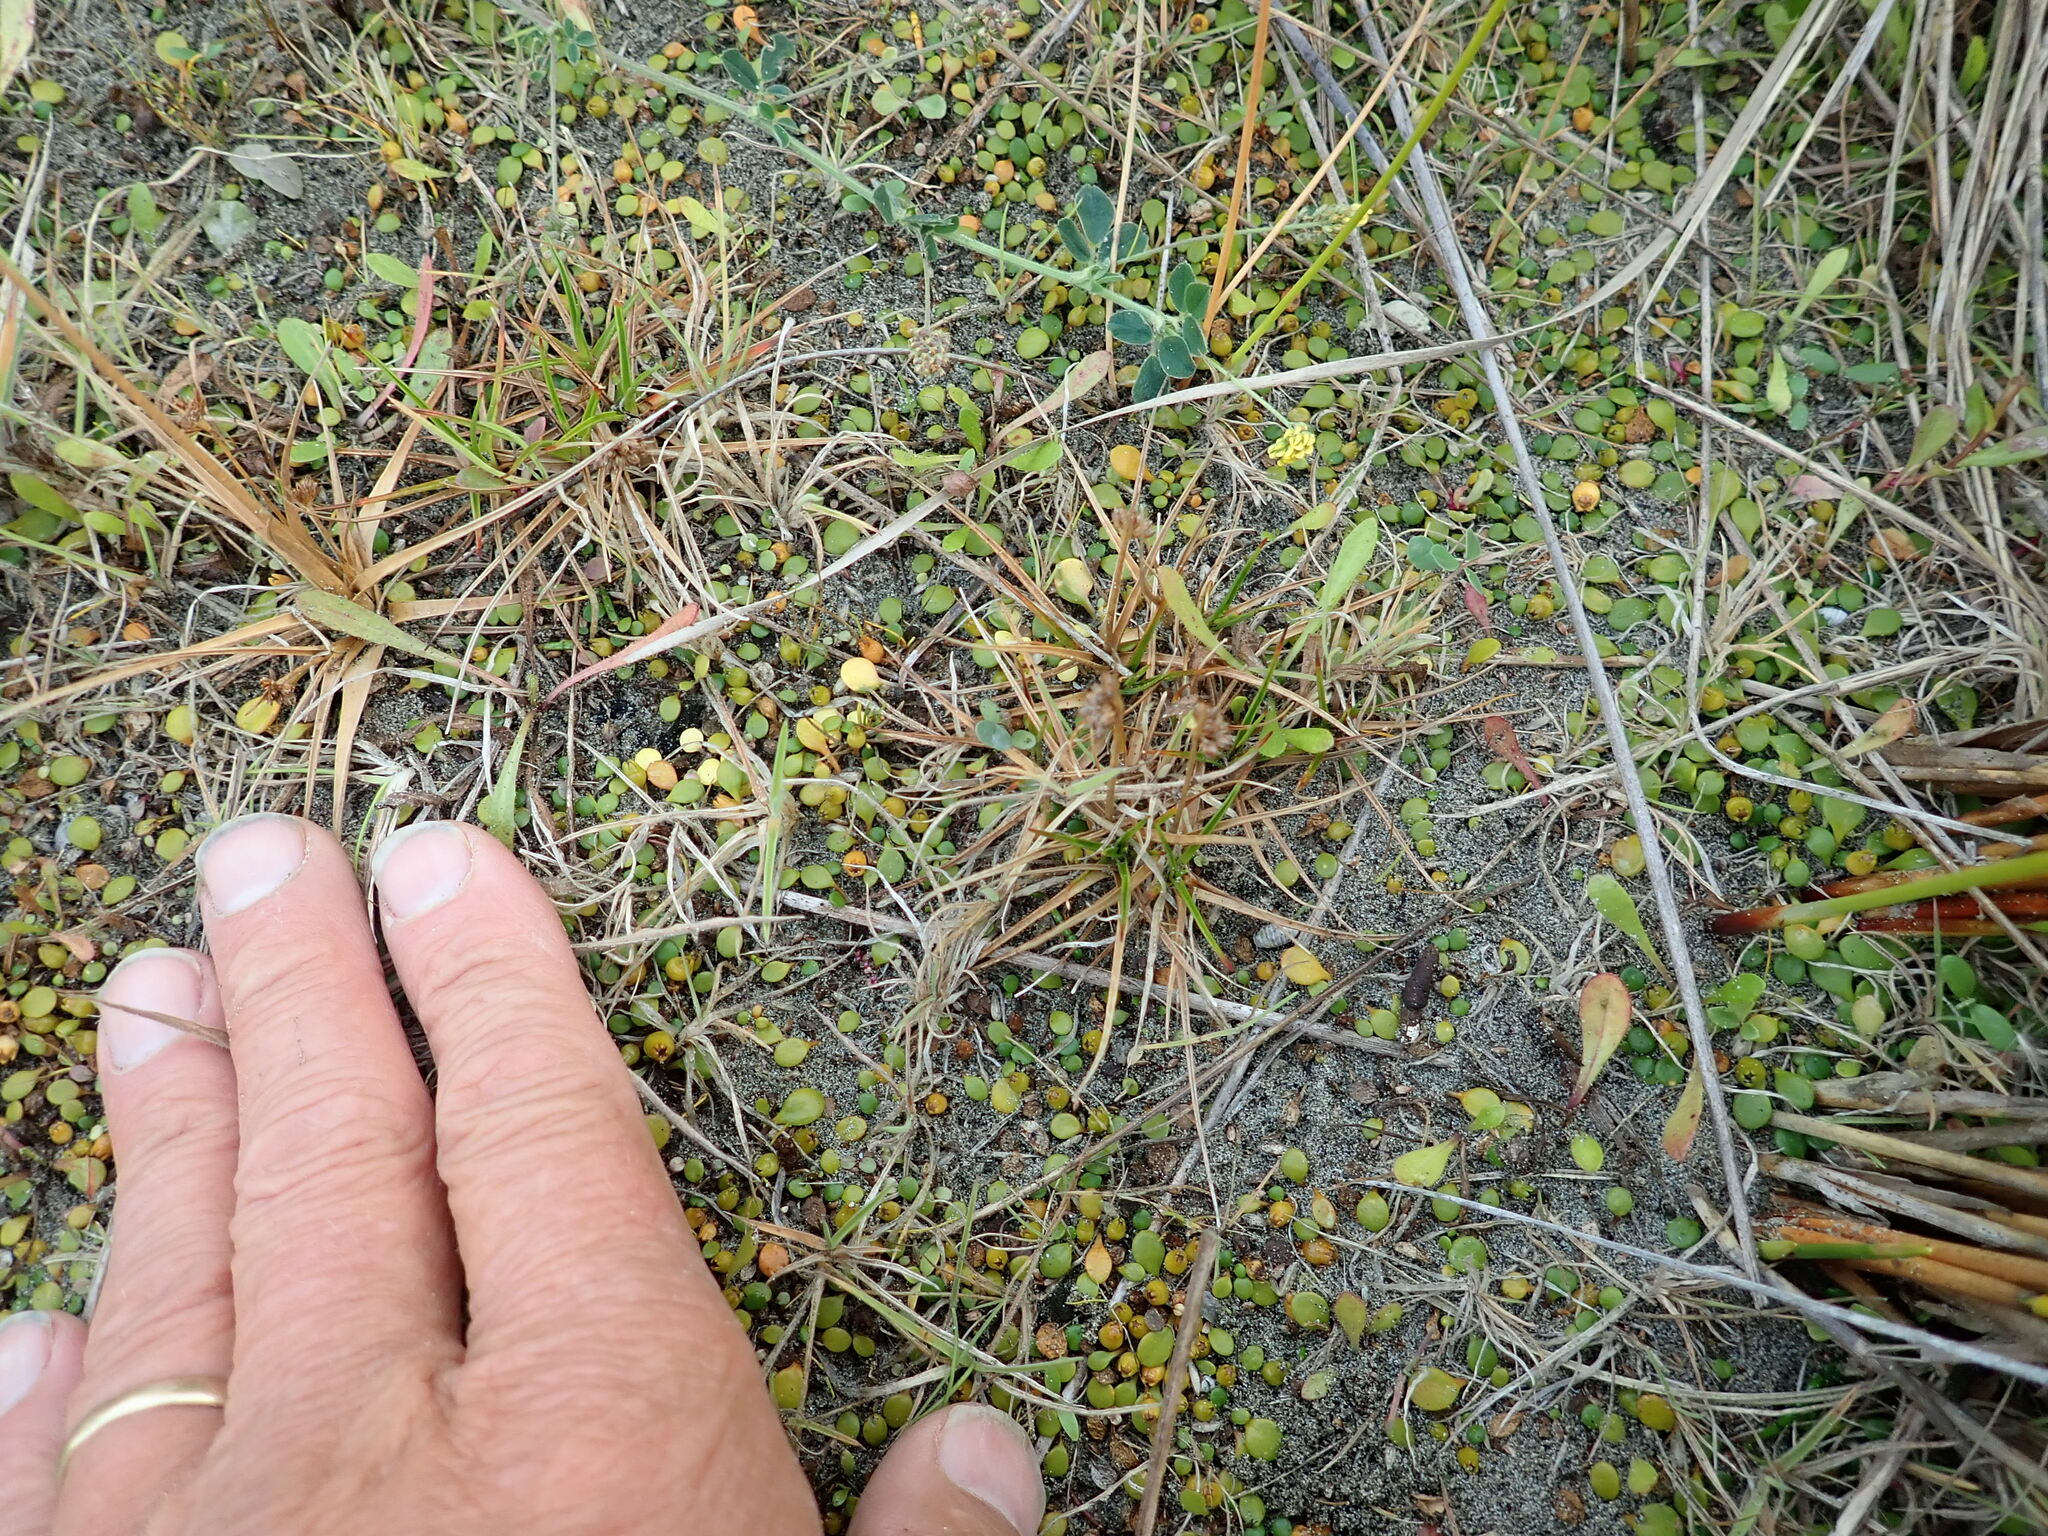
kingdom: Plantae
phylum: Tracheophyta
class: Liliopsida
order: Poales
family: Juncaceae
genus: Juncus
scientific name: Juncus caespiticius
